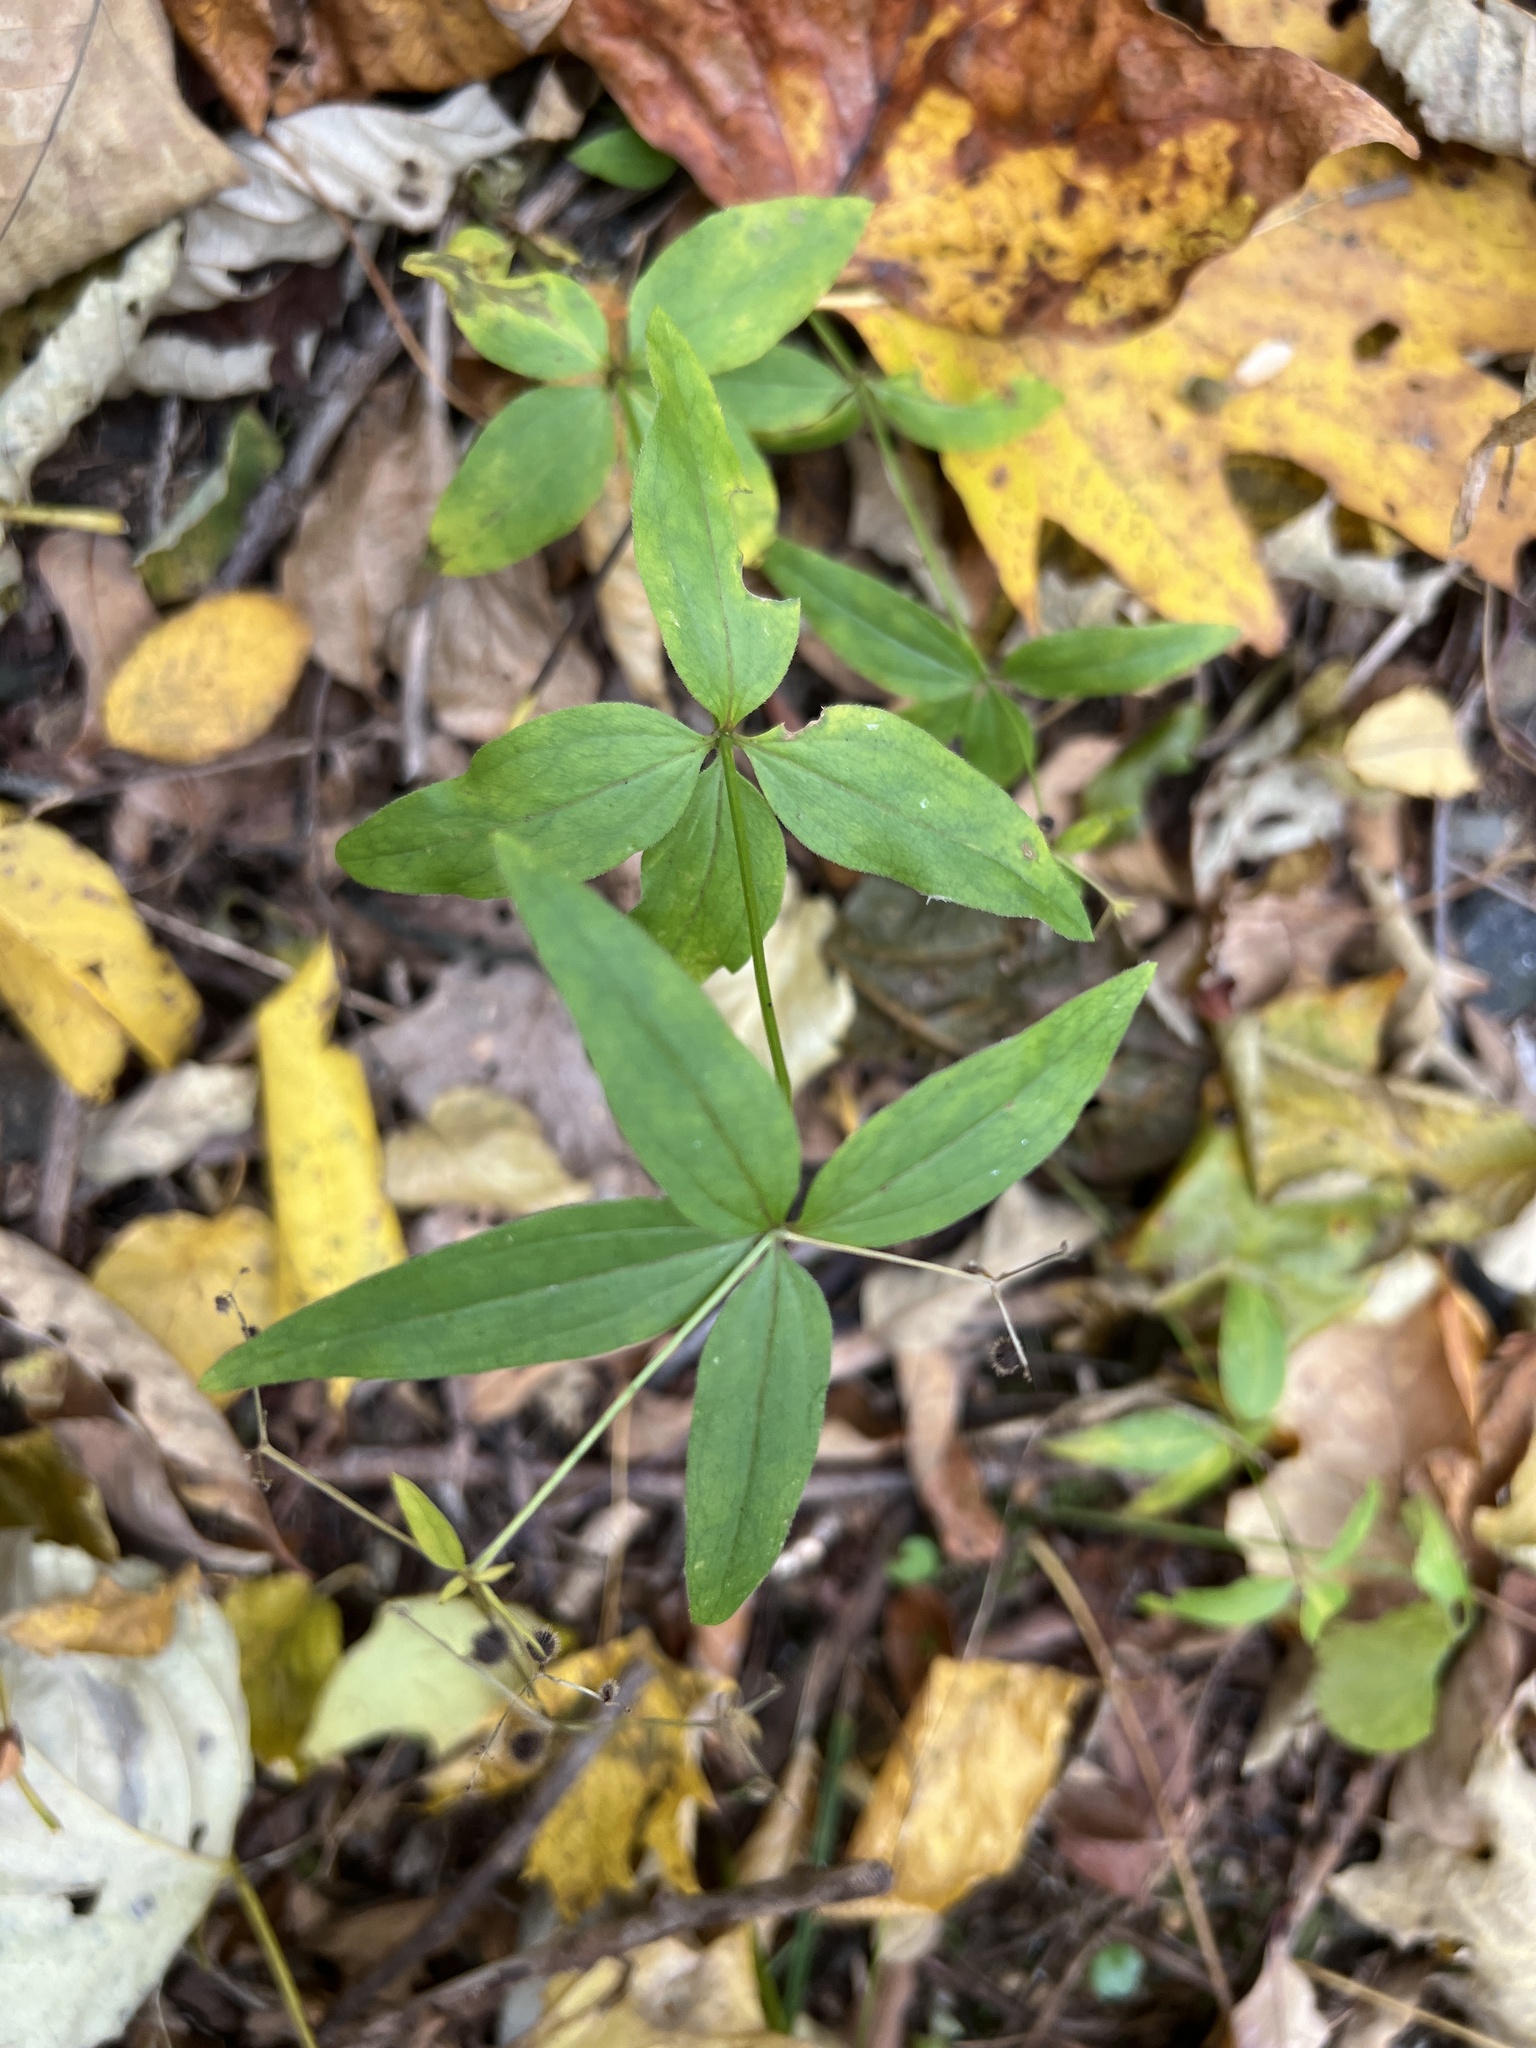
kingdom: Plantae
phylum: Tracheophyta
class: Magnoliopsida
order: Gentianales
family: Rubiaceae
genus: Galium
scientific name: Galium lanceolatum
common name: Lance-leaved wild licorice
